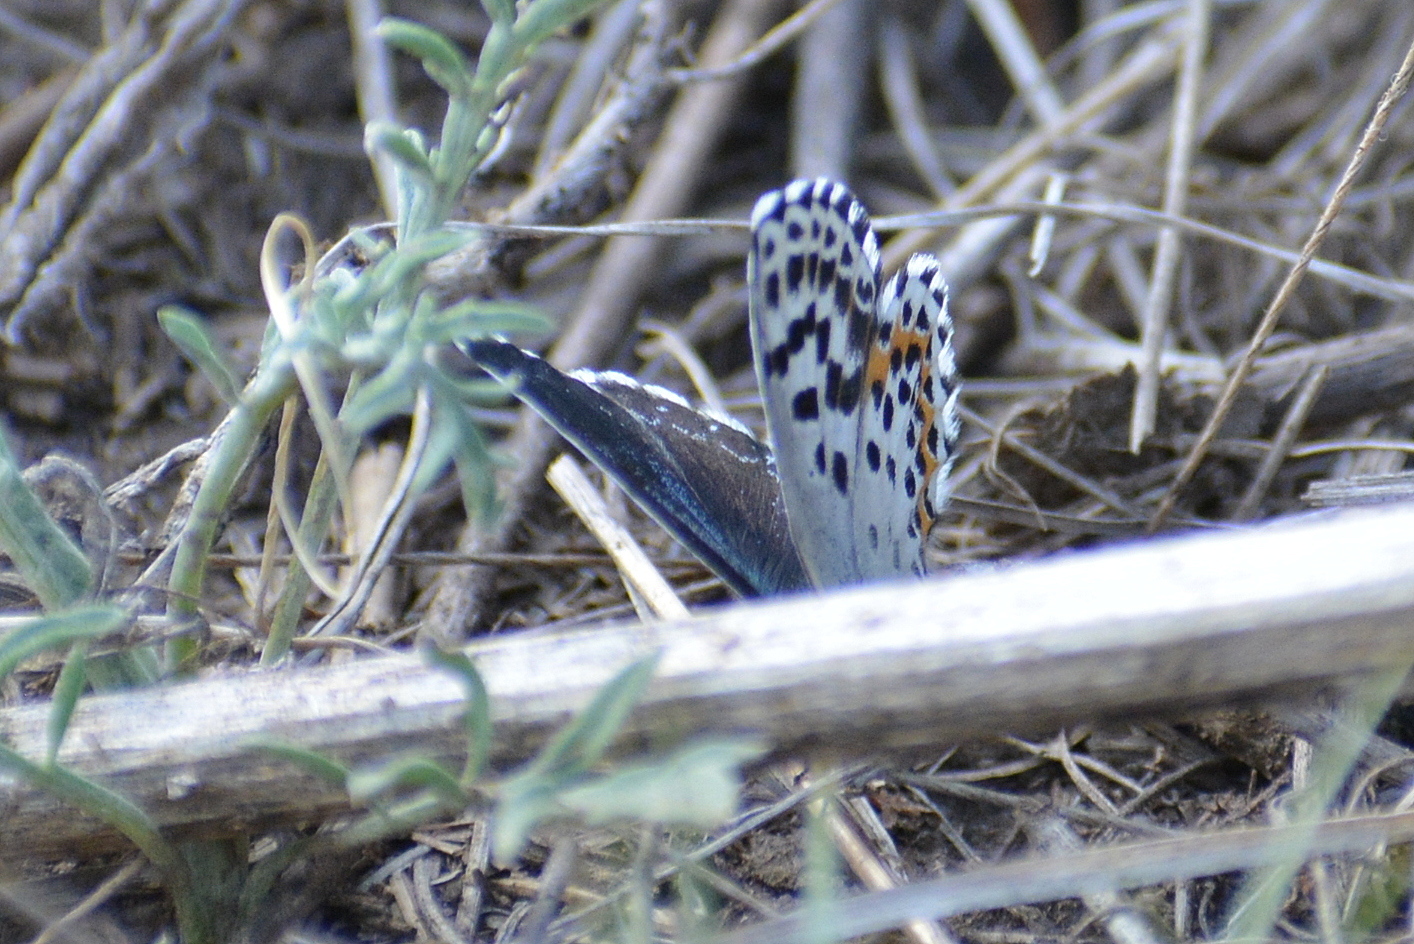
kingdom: Animalia
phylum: Arthropoda
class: Insecta
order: Lepidoptera
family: Lycaenidae
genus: Scolitantides
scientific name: Scolitantides orion
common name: Chequered blue
